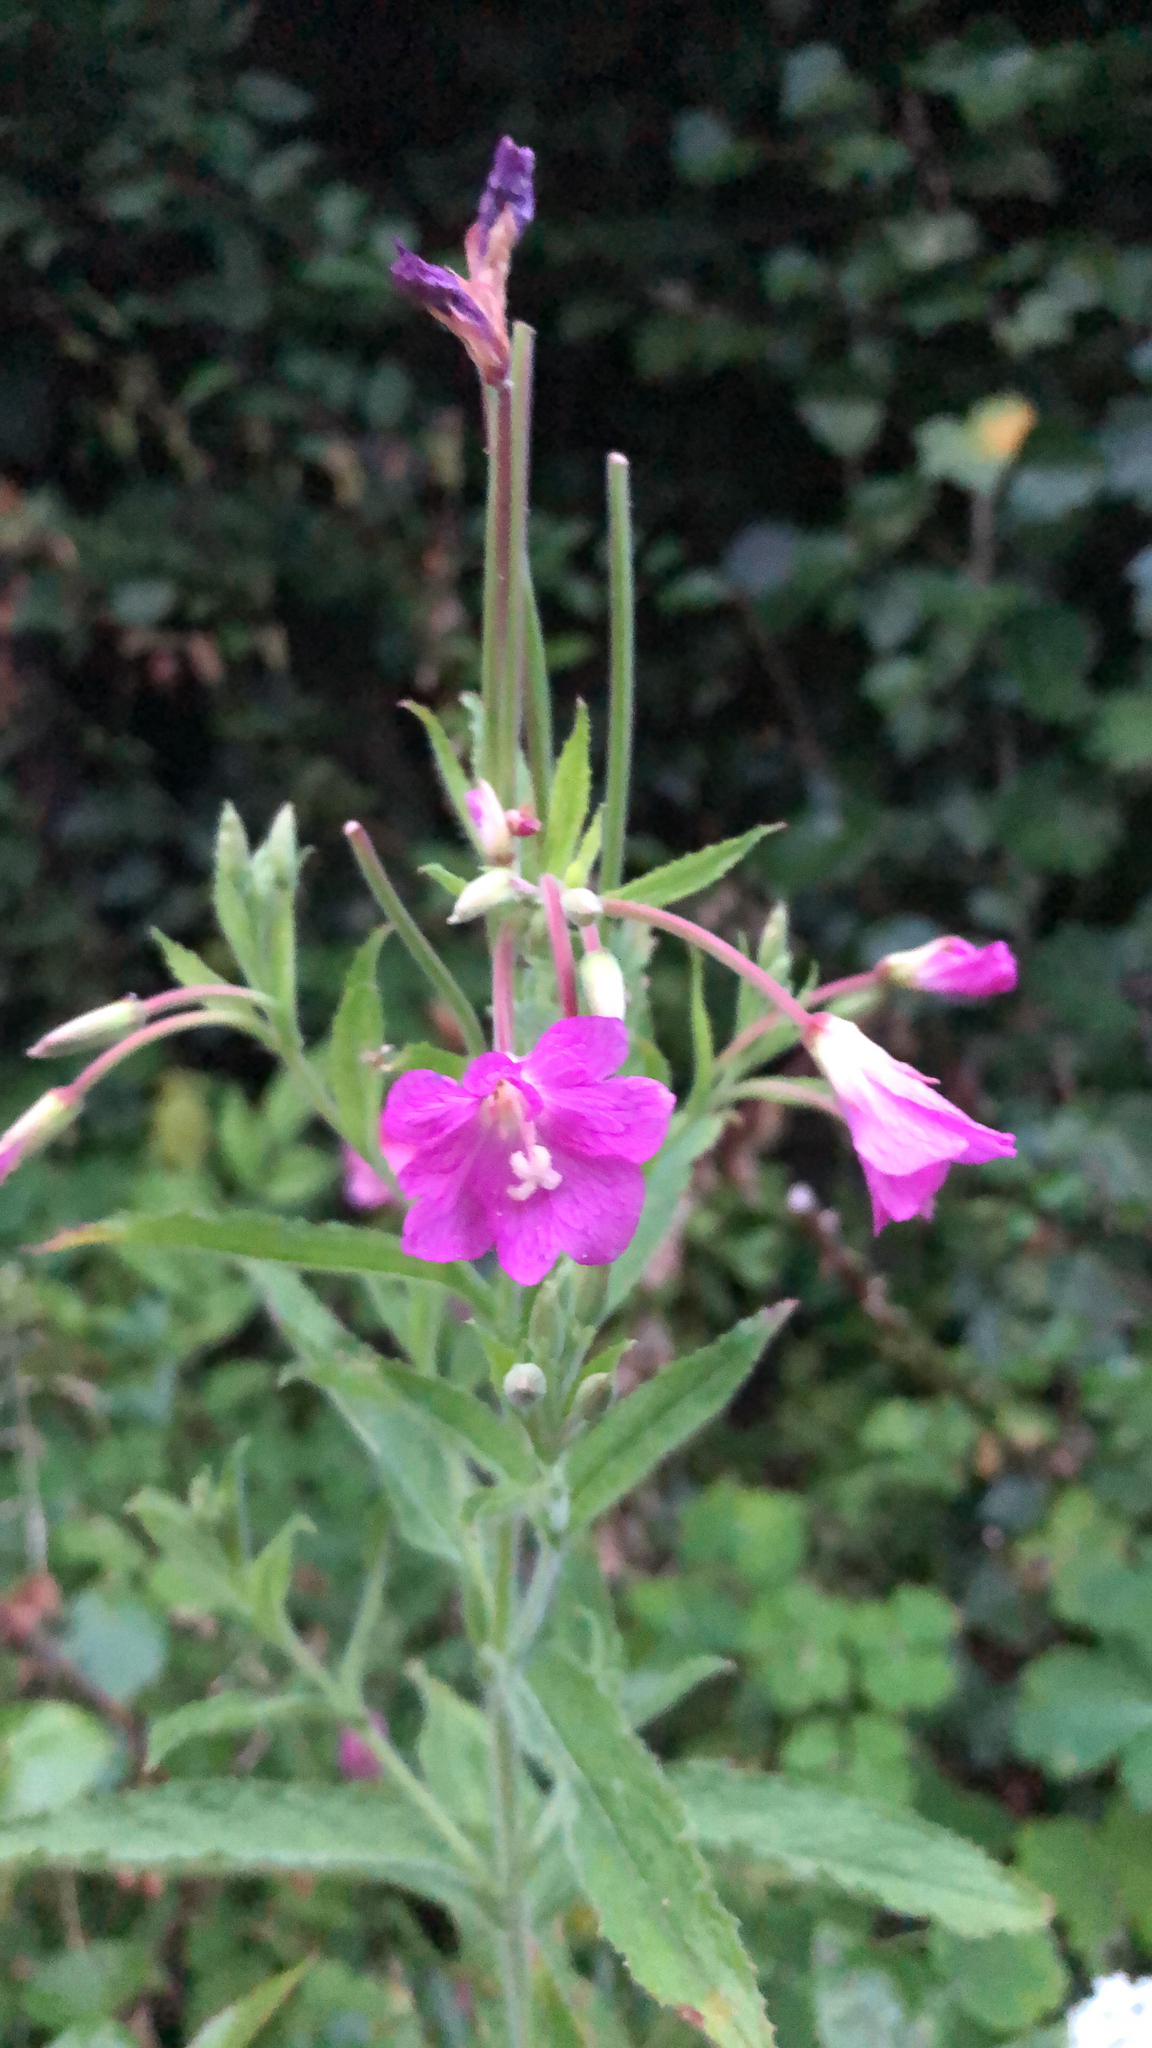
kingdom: Plantae
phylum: Tracheophyta
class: Magnoliopsida
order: Myrtales
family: Onagraceae
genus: Epilobium
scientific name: Epilobium hirsutum
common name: Great willowherb
